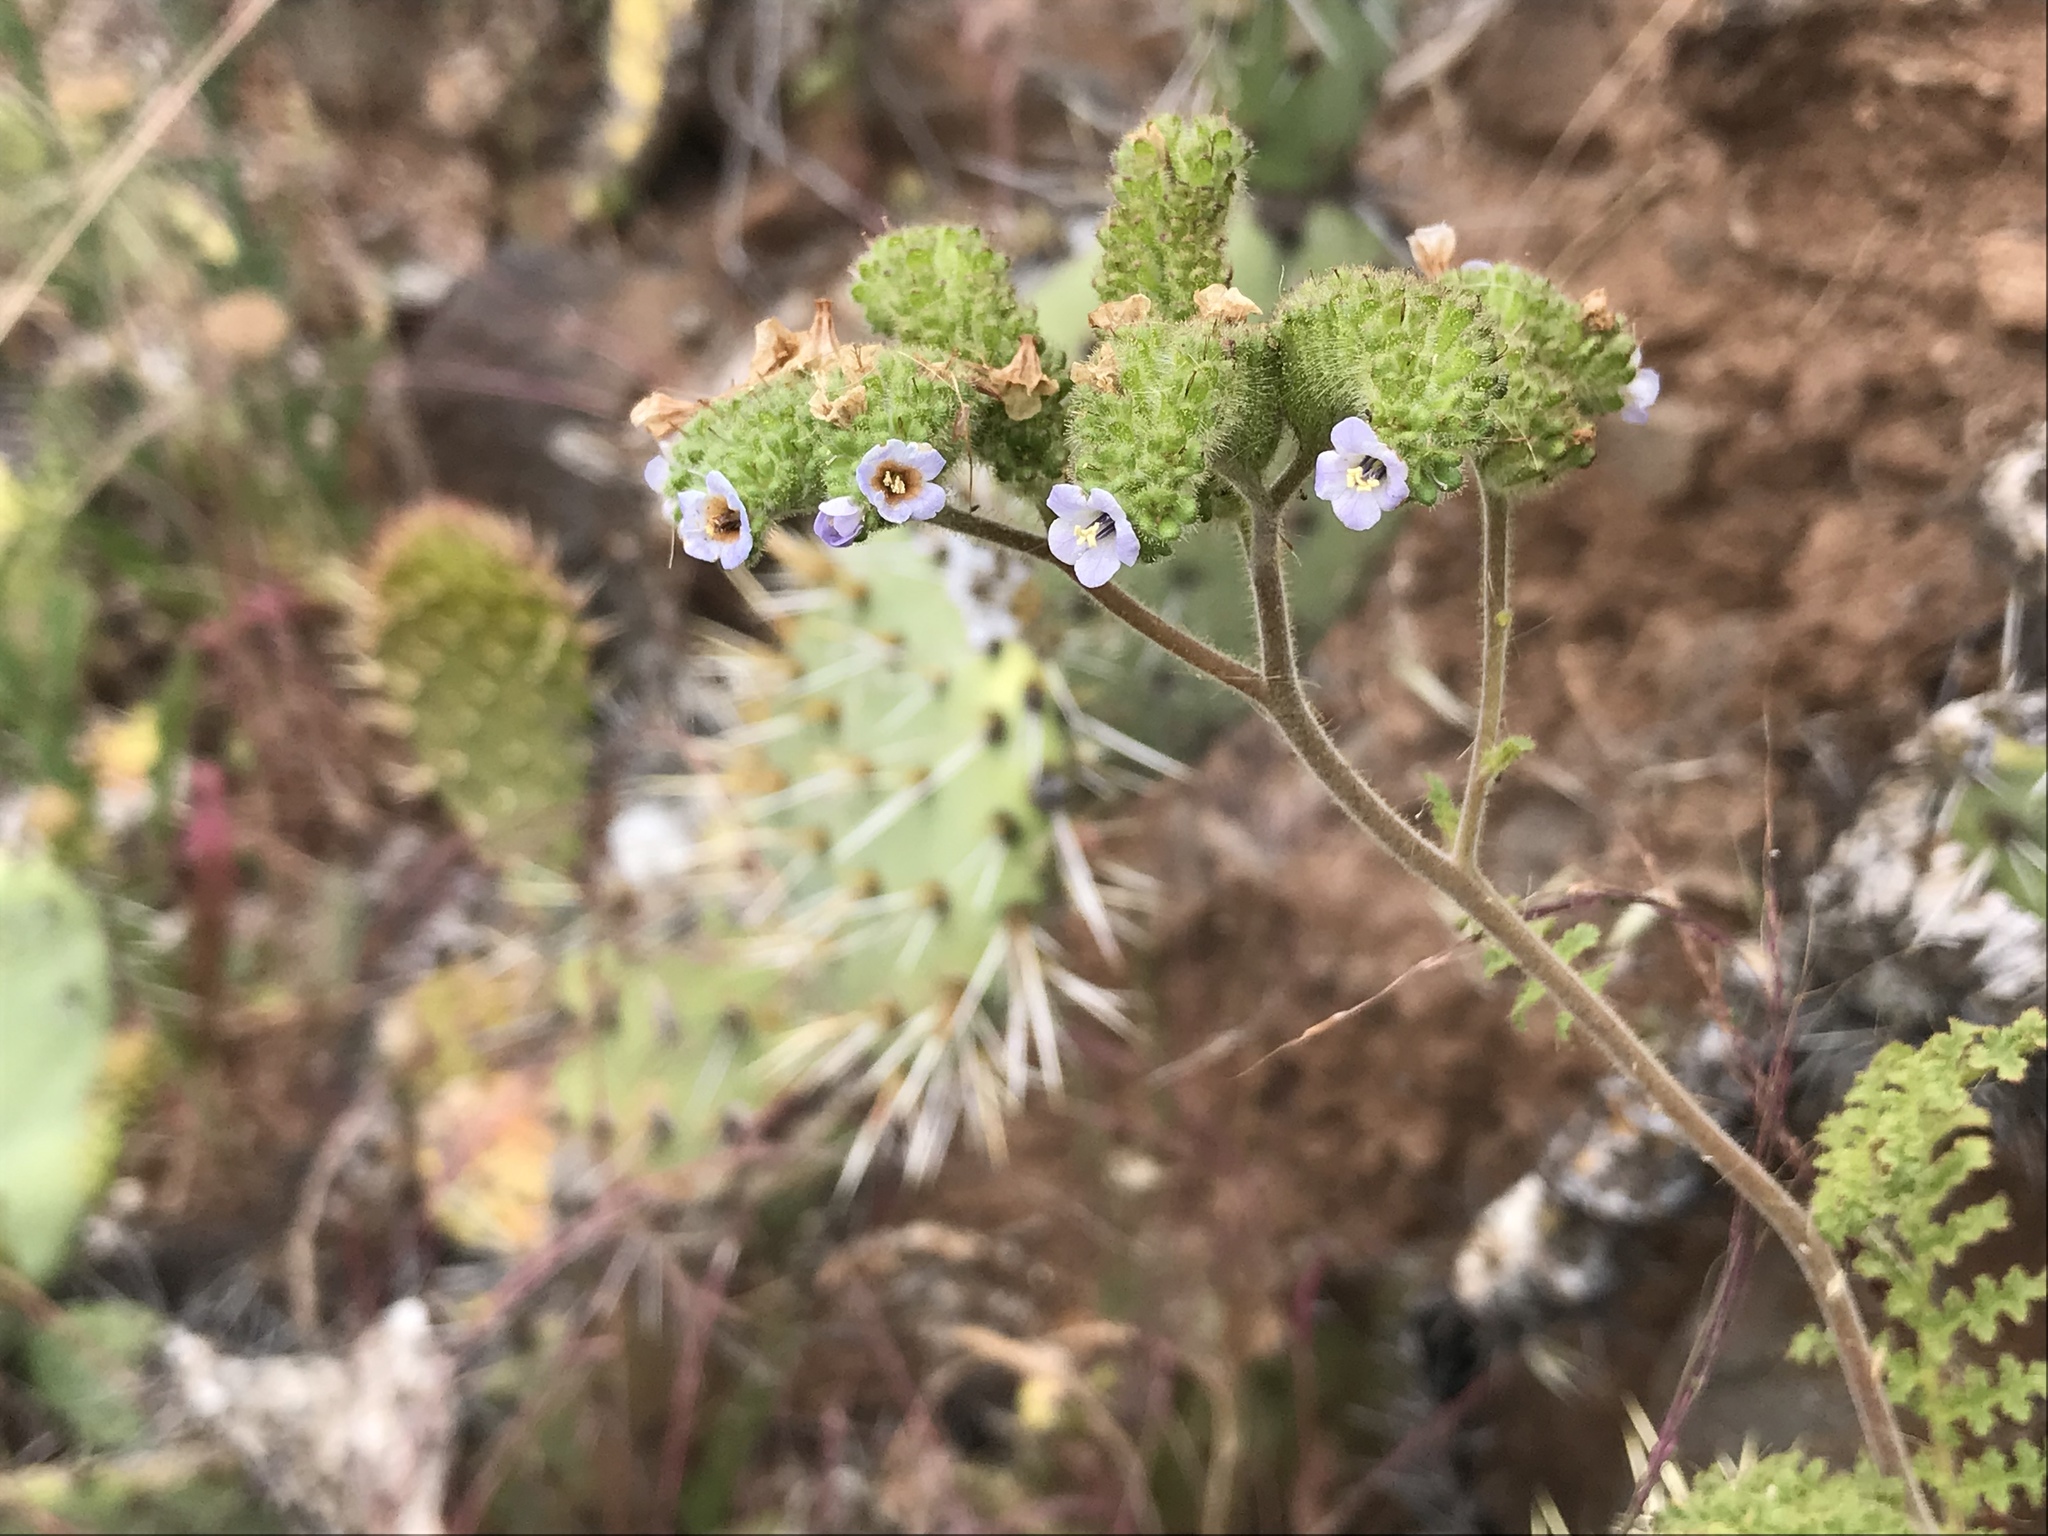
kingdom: Plantae
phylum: Tracheophyta
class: Magnoliopsida
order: Boraginales
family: Hydrophyllaceae
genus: Phacelia
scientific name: Phacelia lyonii
